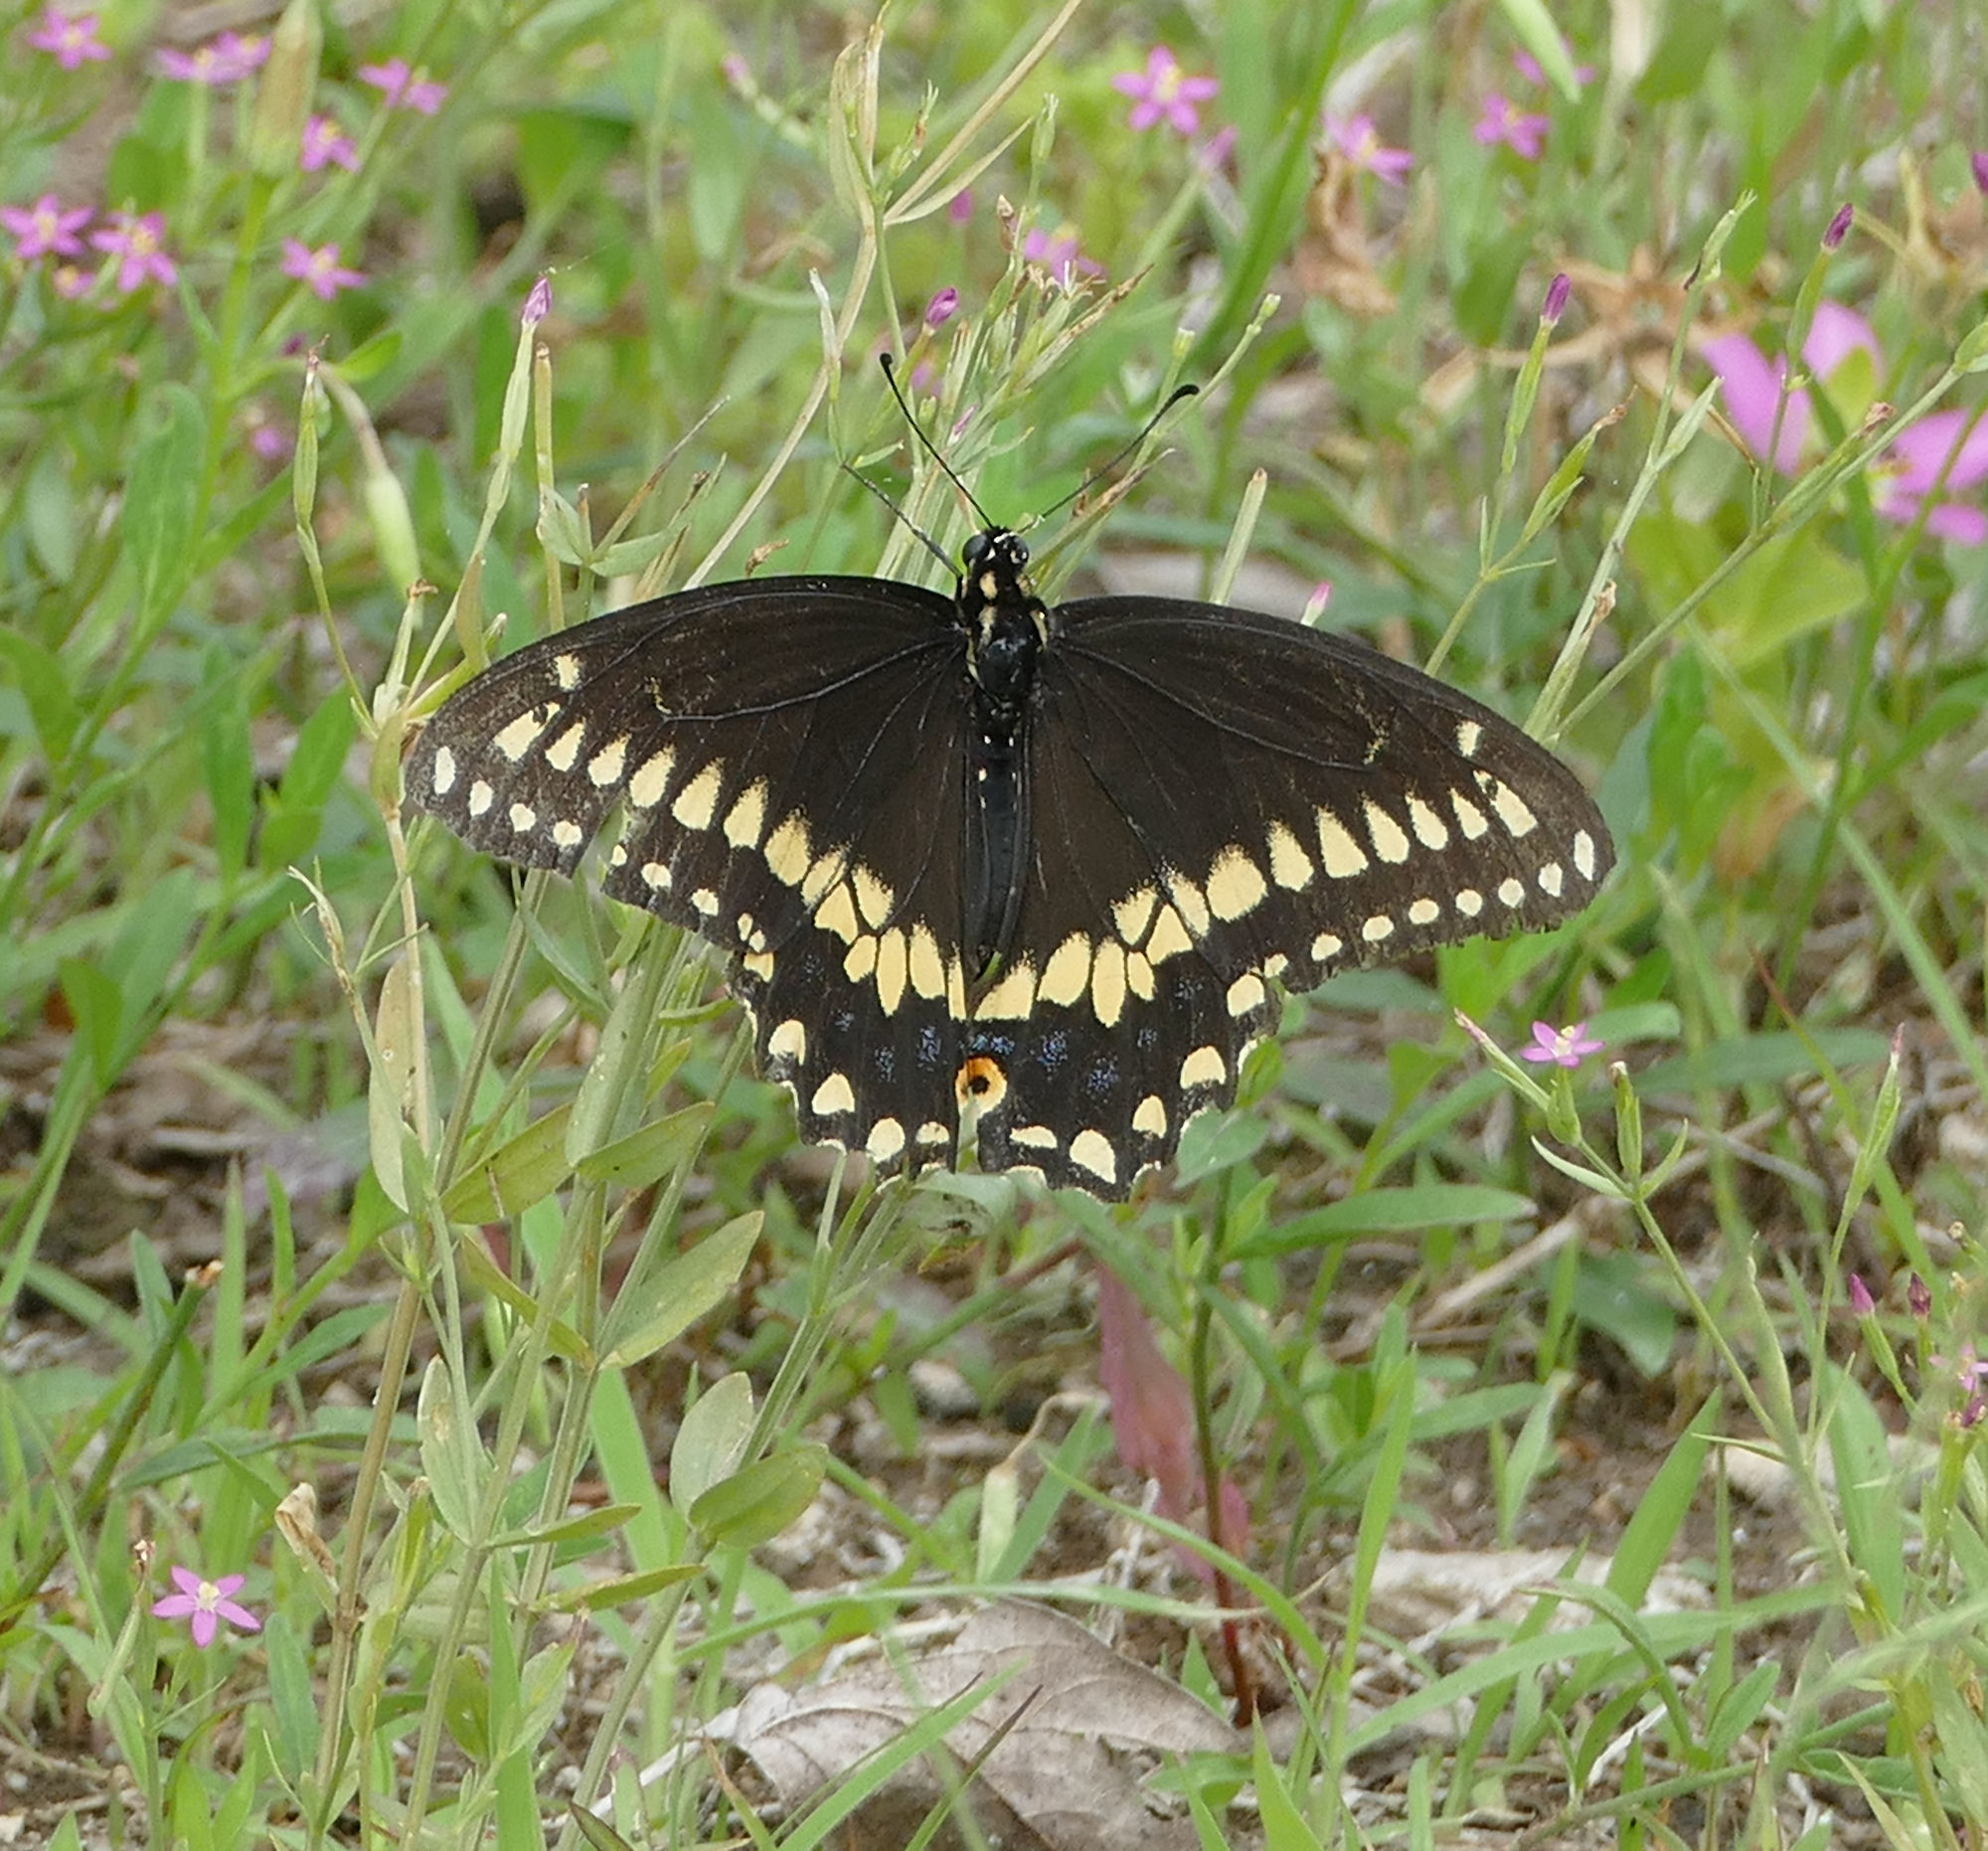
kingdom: Animalia
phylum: Arthropoda
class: Insecta
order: Lepidoptera
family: Papilionidae
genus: Papilio
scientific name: Papilio polyxenes
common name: Black swallowtail
